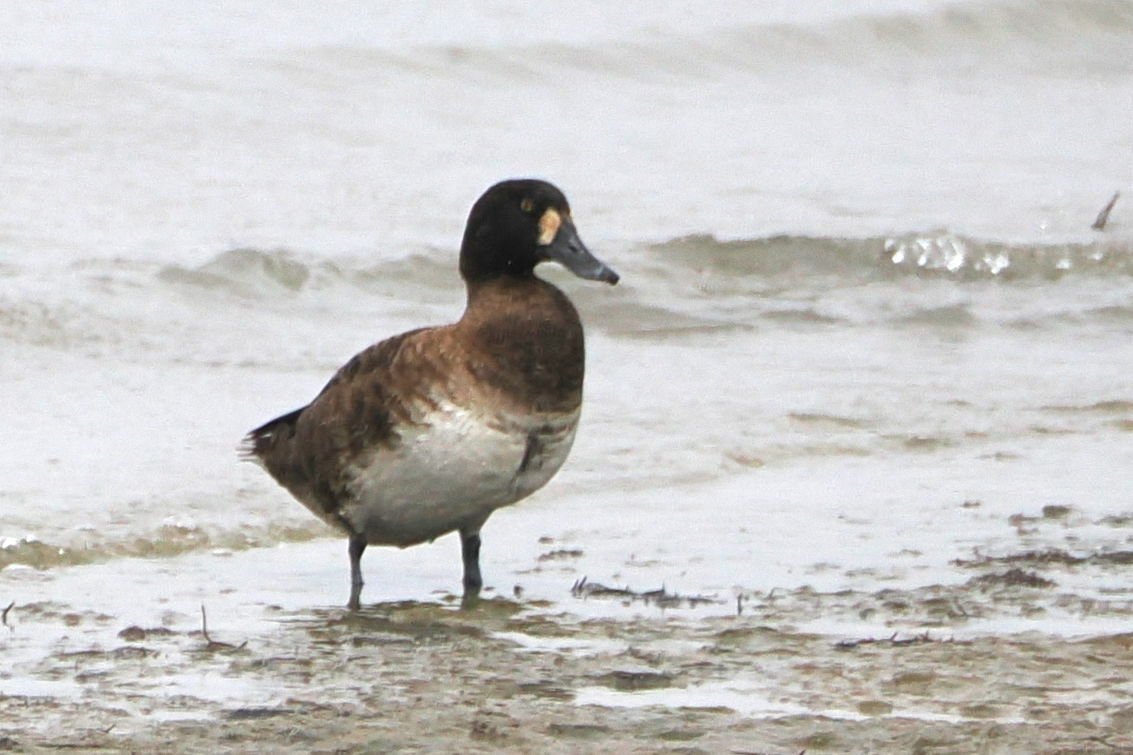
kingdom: Animalia
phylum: Chordata
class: Aves
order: Anseriformes
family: Anatidae
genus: Aythya
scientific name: Aythya marila
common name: Greater scaup
